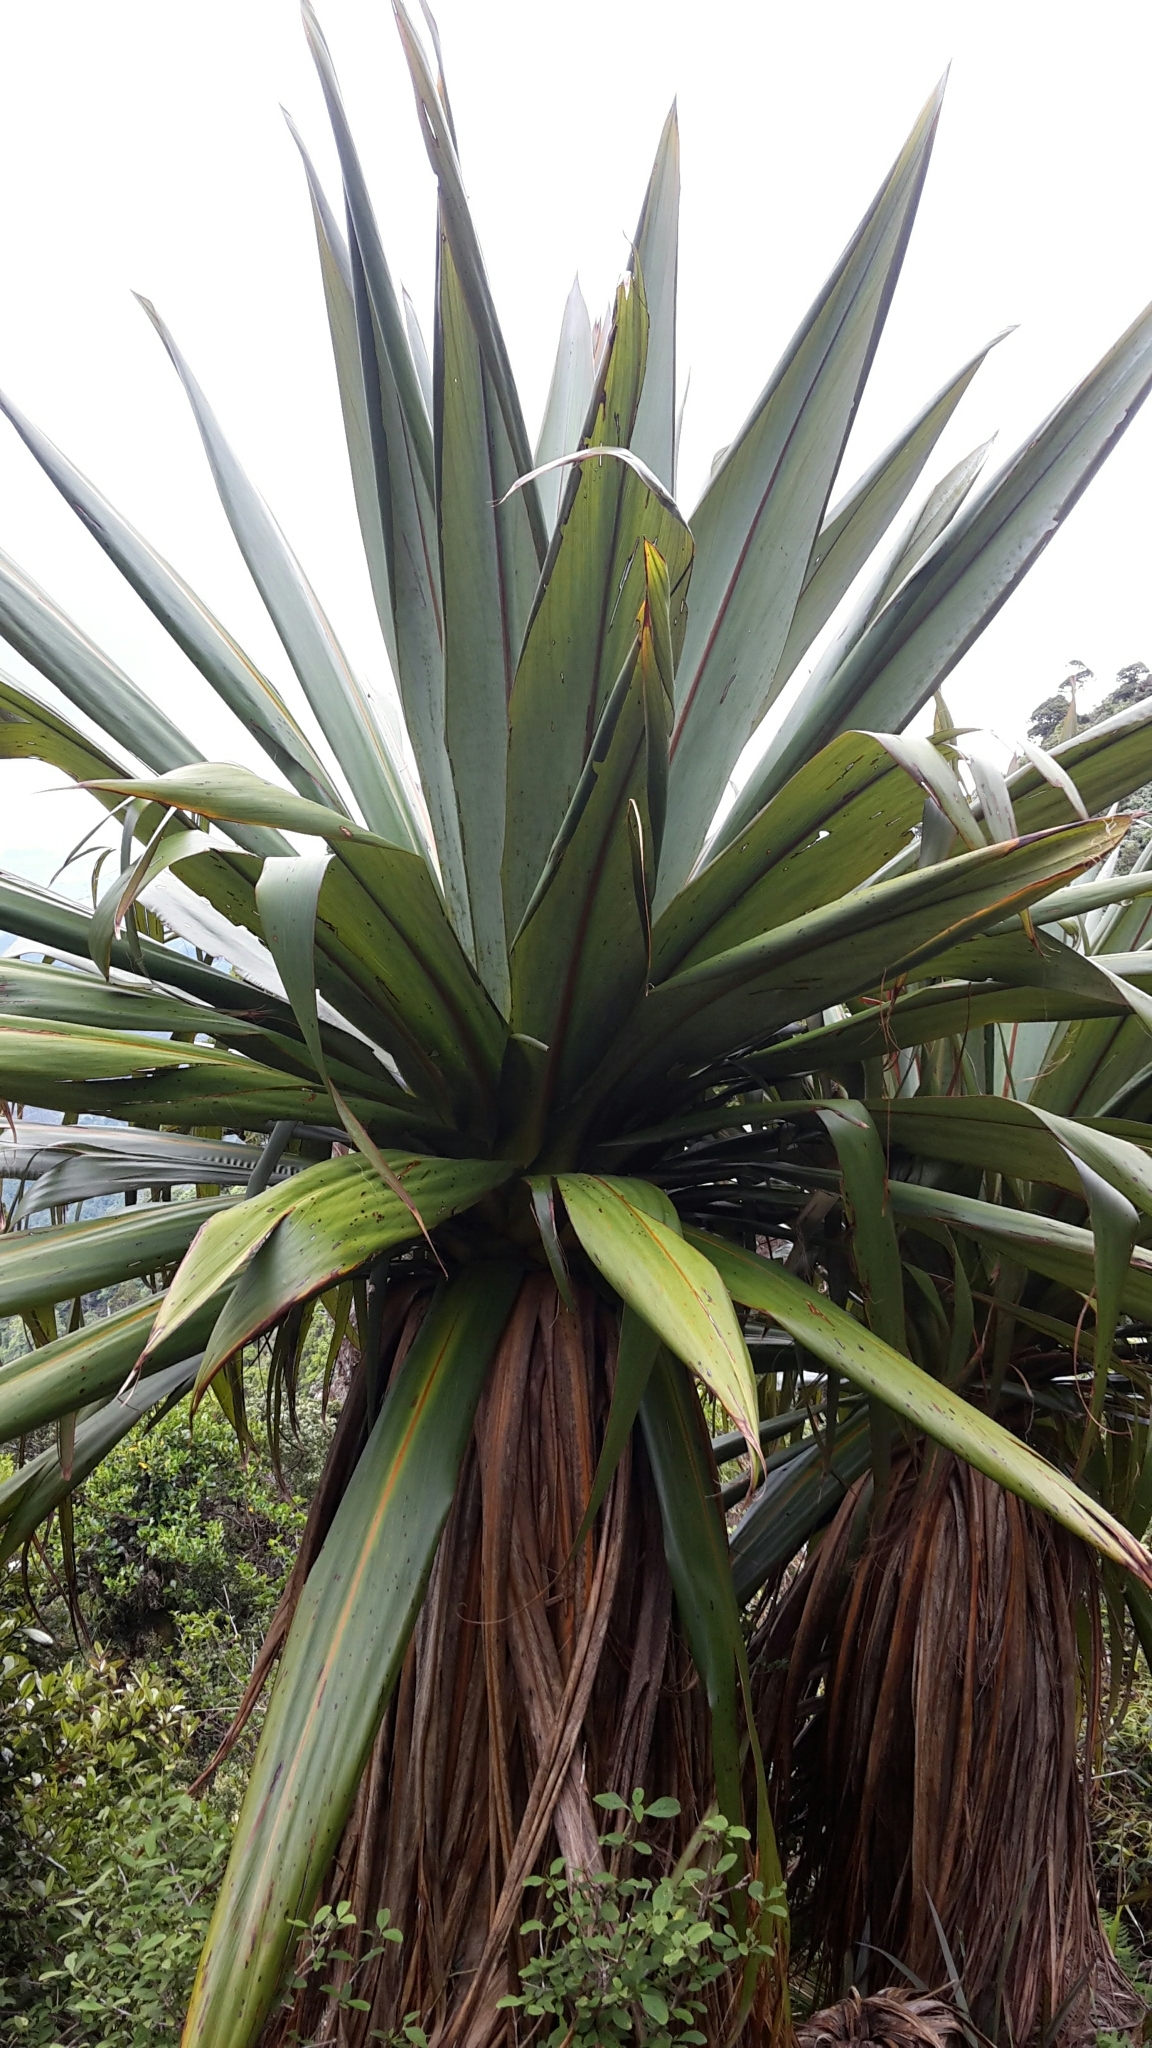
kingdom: Plantae
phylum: Tracheophyta
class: Liliopsida
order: Asparagales
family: Asparagaceae
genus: Cordyline
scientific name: Cordyline indivisa
